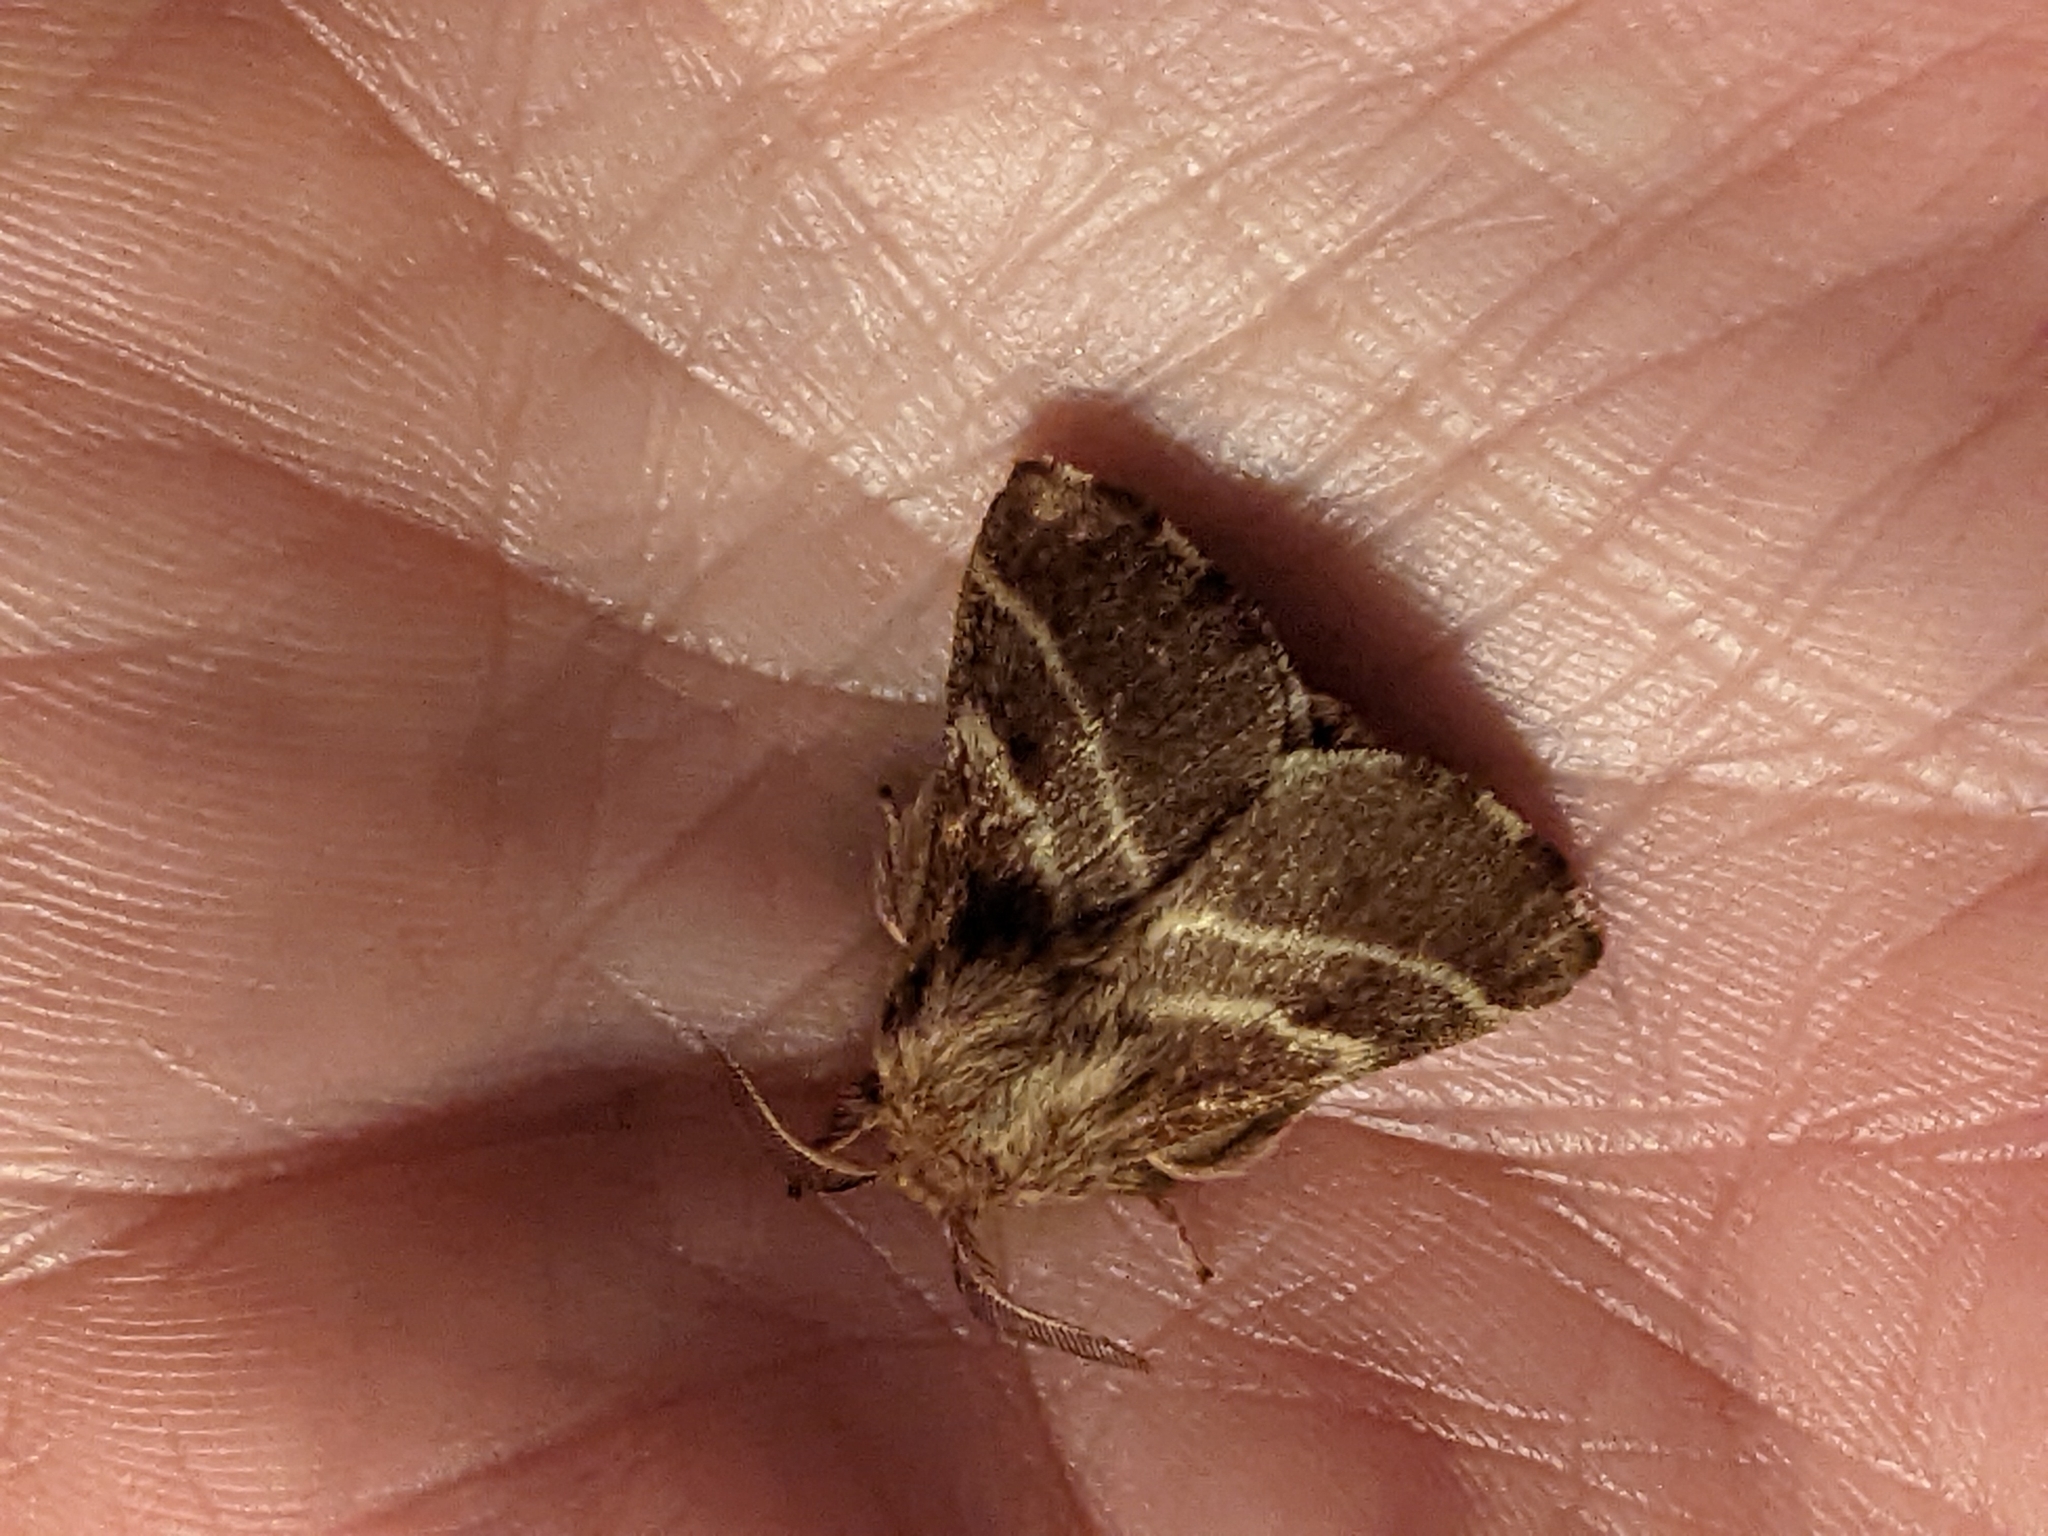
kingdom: Animalia
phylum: Arthropoda
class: Insecta
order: Lepidoptera
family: Lasiocampidae
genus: Malacosoma
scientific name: Malacosoma americana
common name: Eastern tent caterpillar moth
